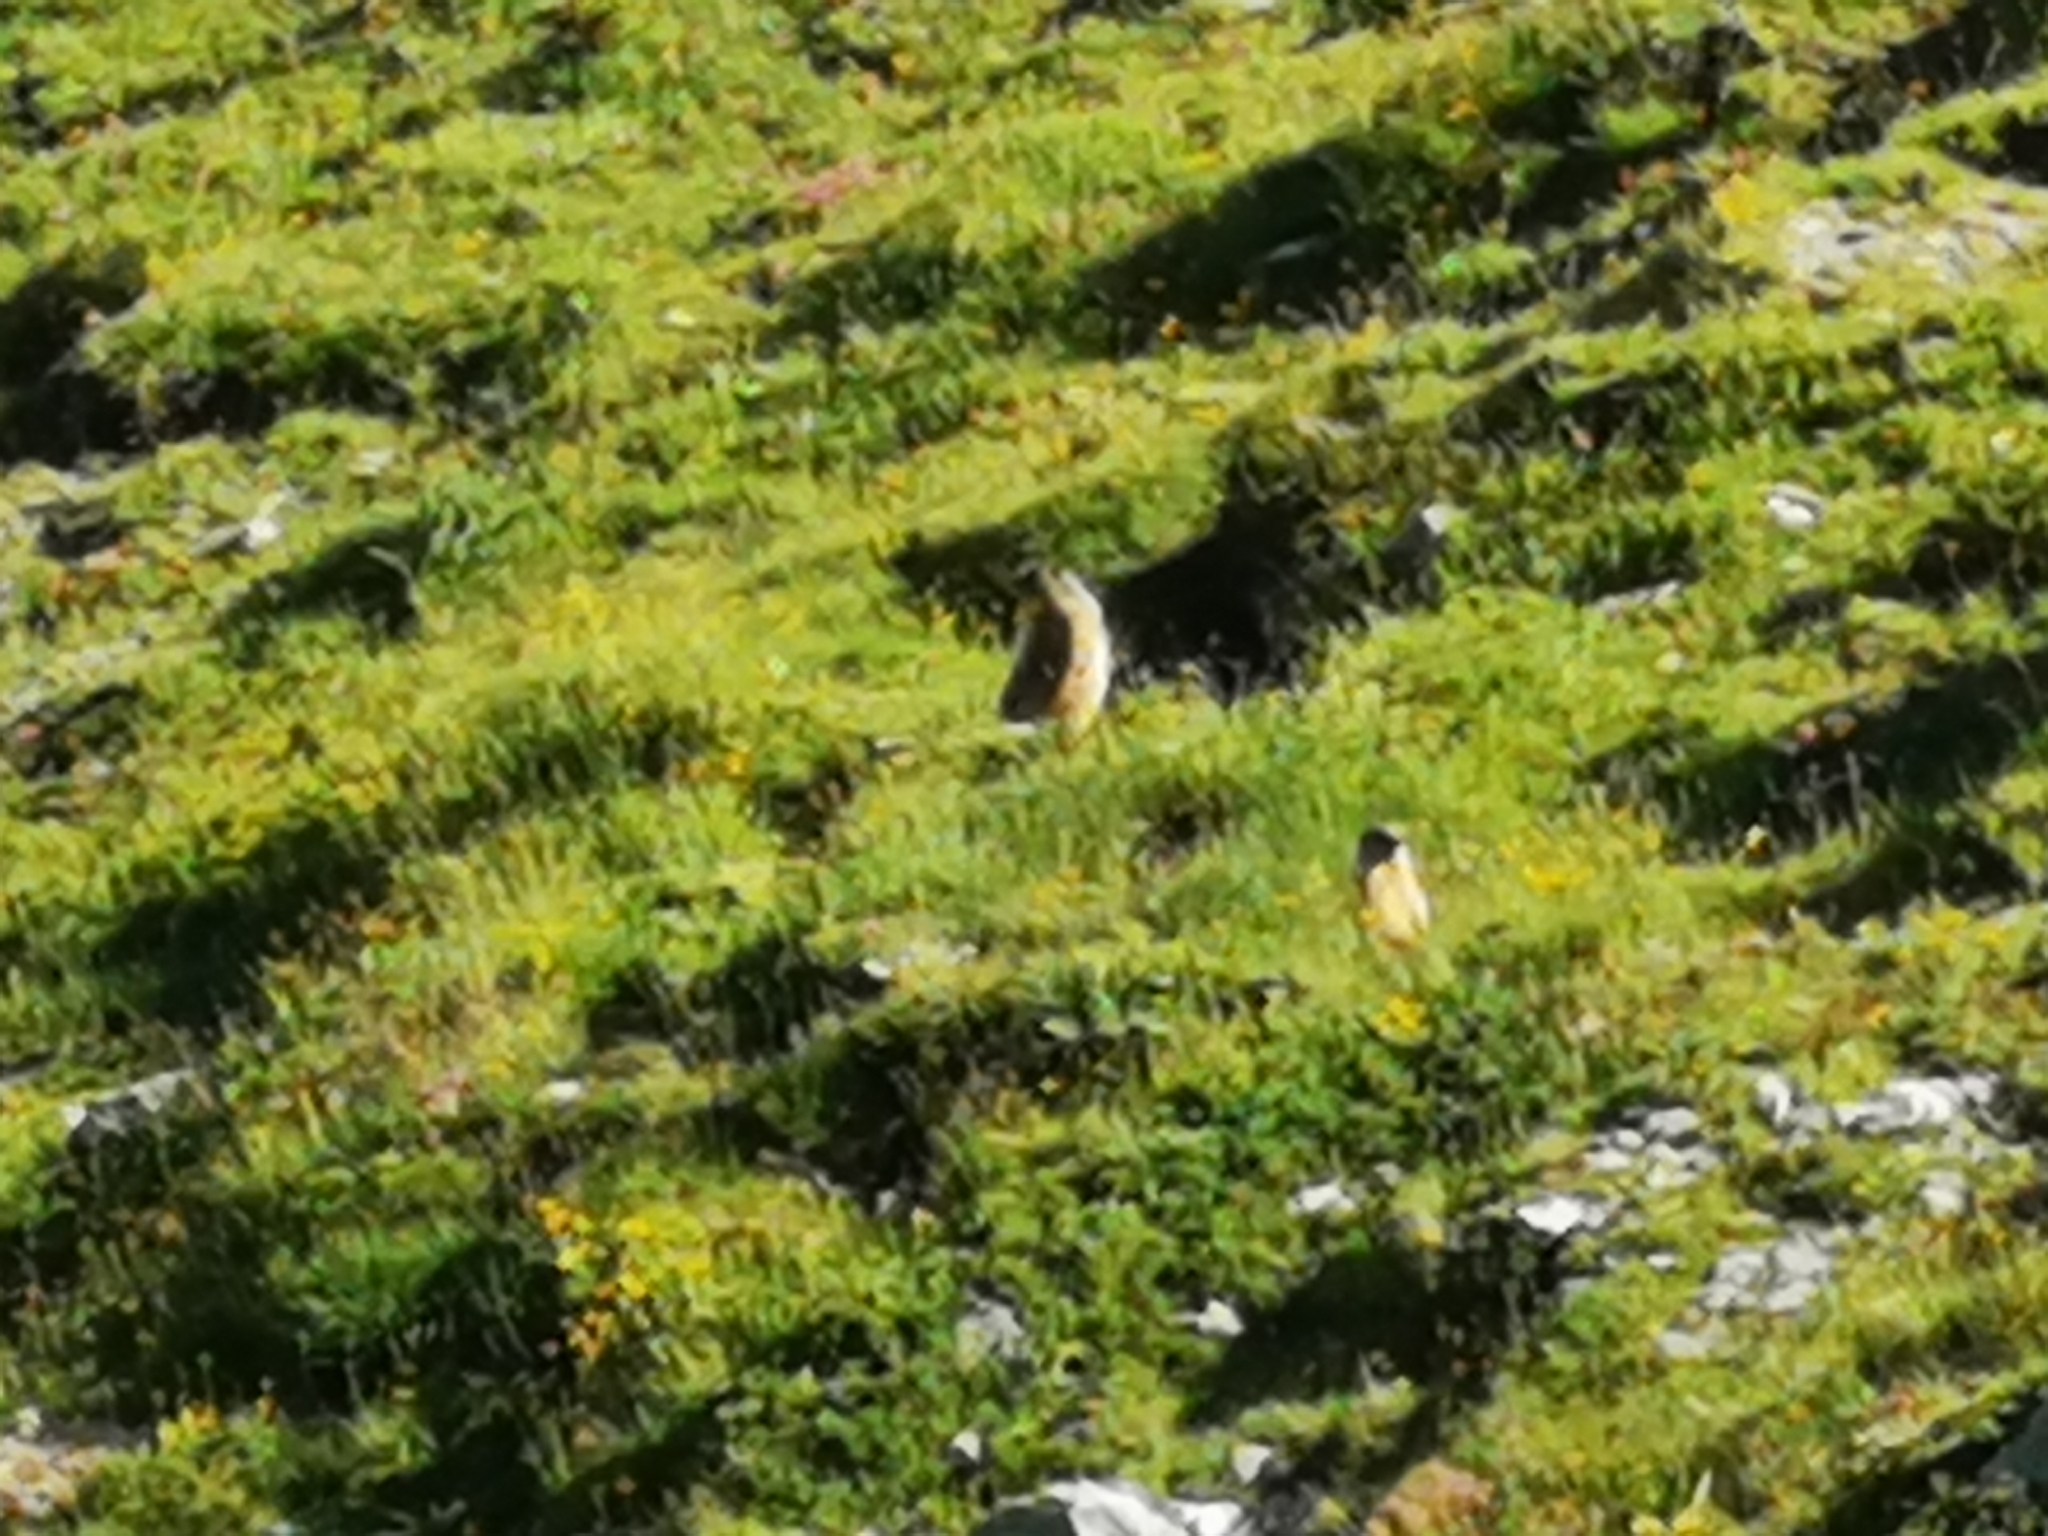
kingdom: Animalia
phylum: Chordata
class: Mammalia
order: Rodentia
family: Sciuridae
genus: Marmota
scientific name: Marmota marmota
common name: Alpine marmot
